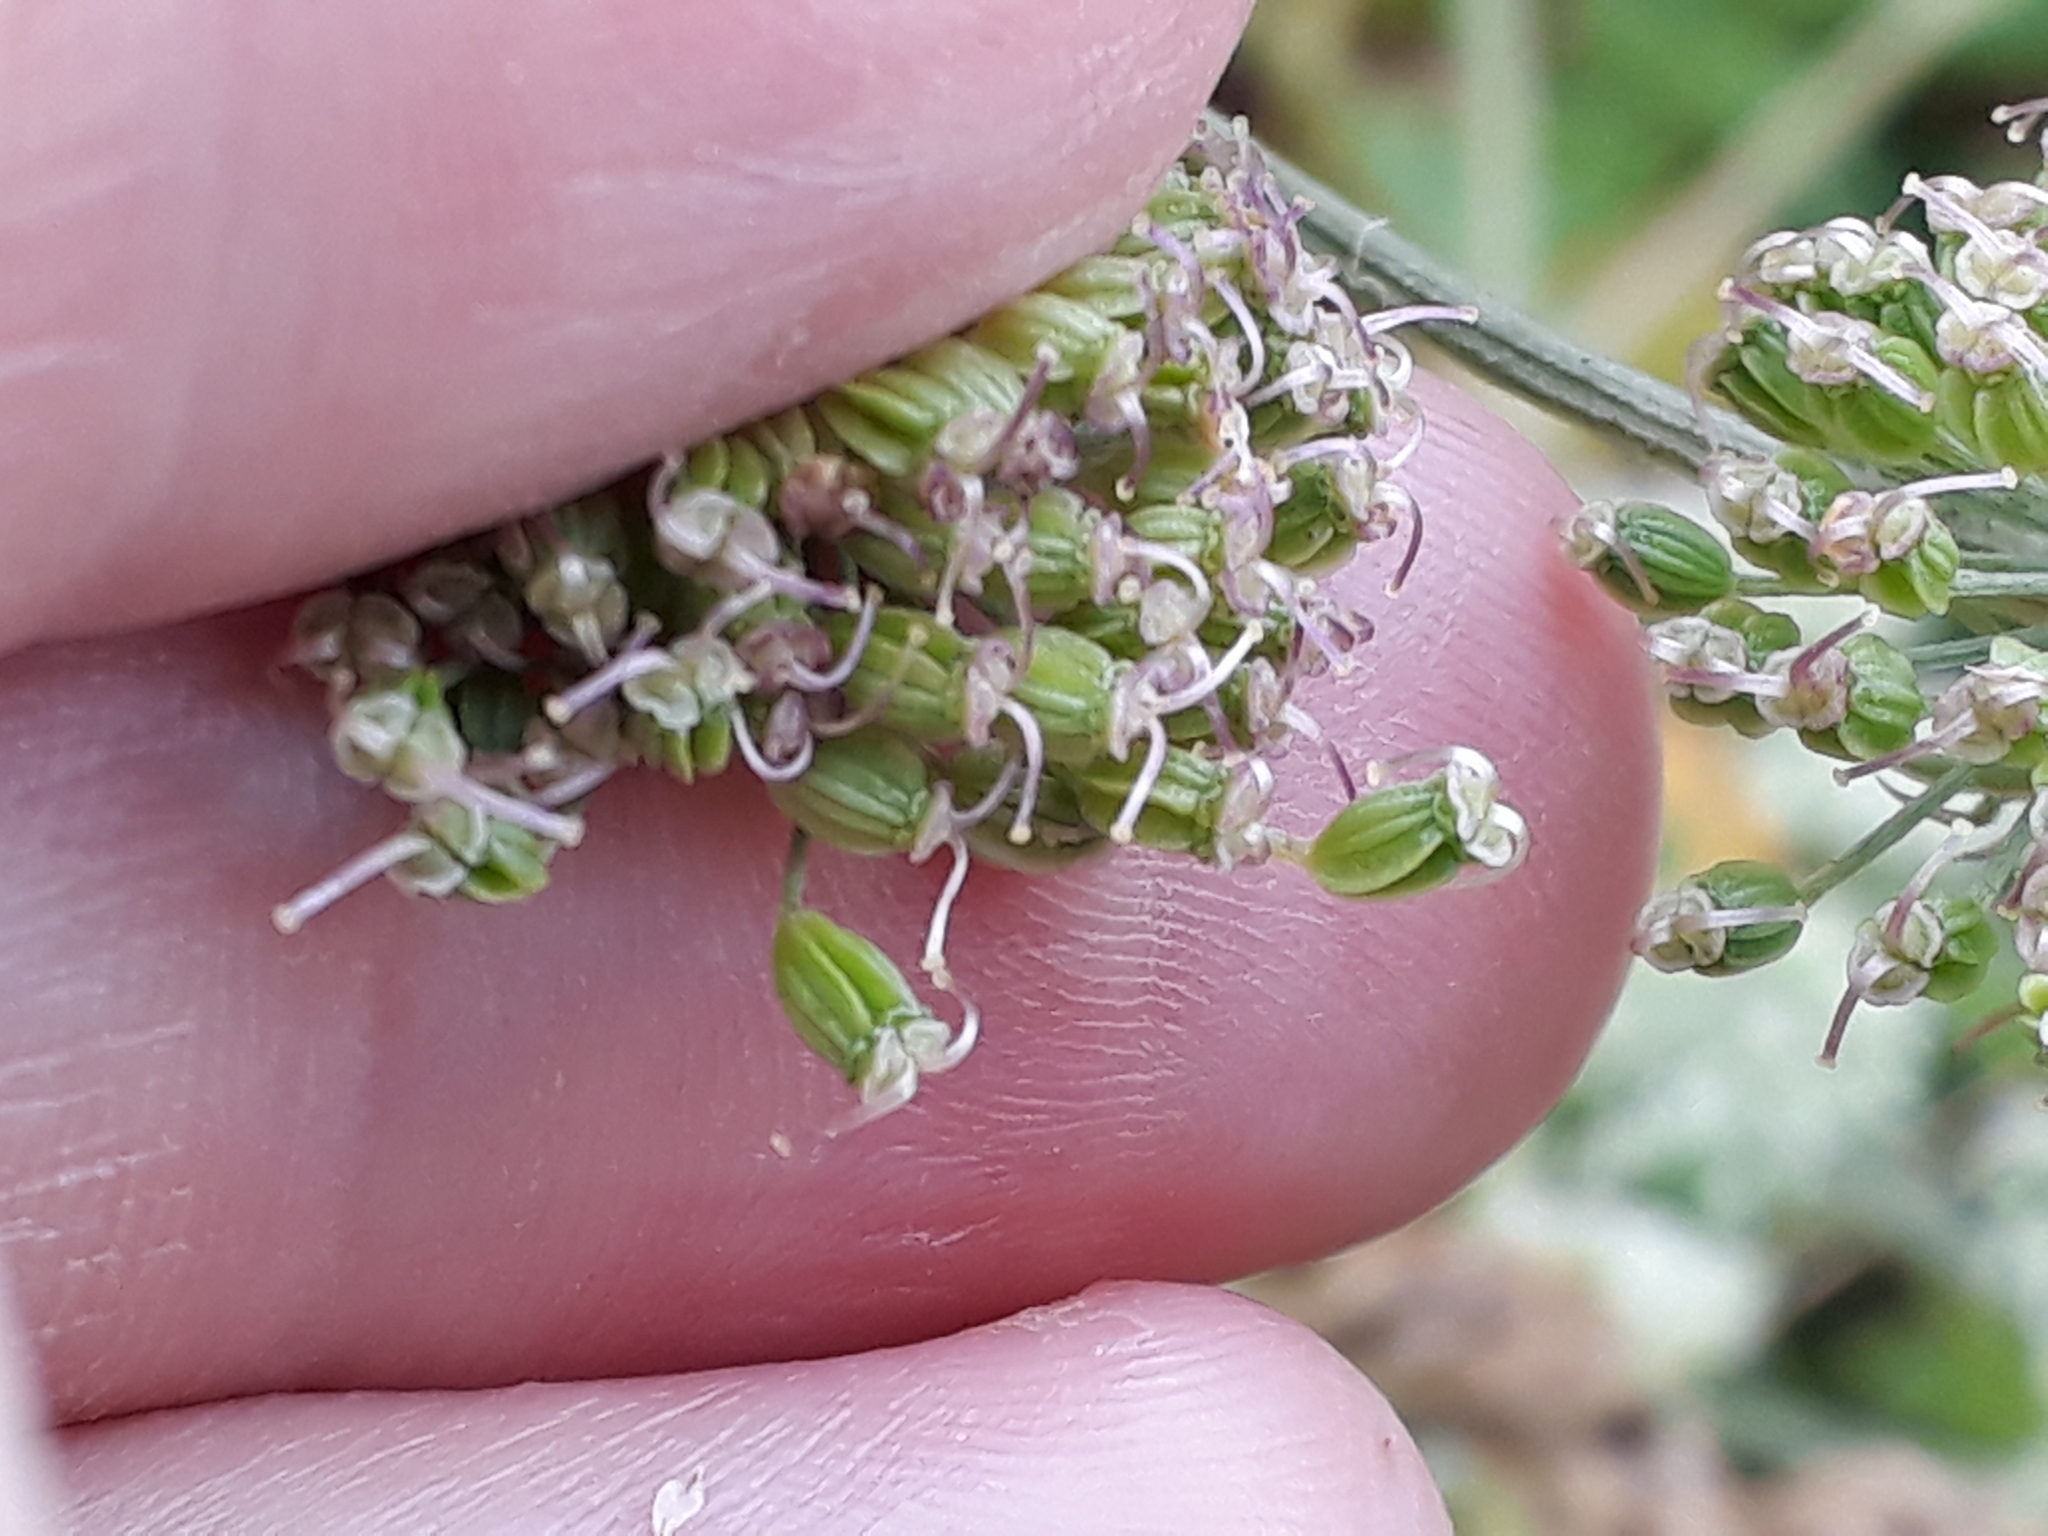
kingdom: Plantae
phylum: Tracheophyta
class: Magnoliopsida
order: Apiales
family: Apiaceae
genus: Angelica
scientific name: Angelica sylvestris
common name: Wild angelica
